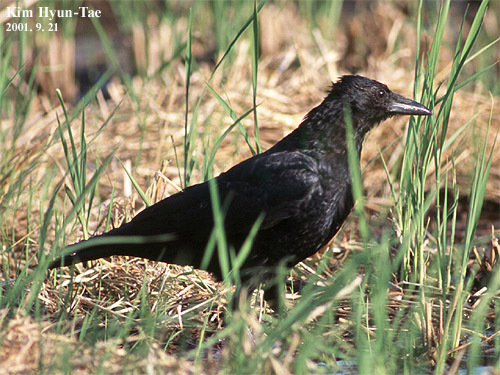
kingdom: Animalia
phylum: Chordata
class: Aves
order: Passeriformes
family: Corvidae
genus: Corvus
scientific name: Corvus corone
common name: Carrion crow
